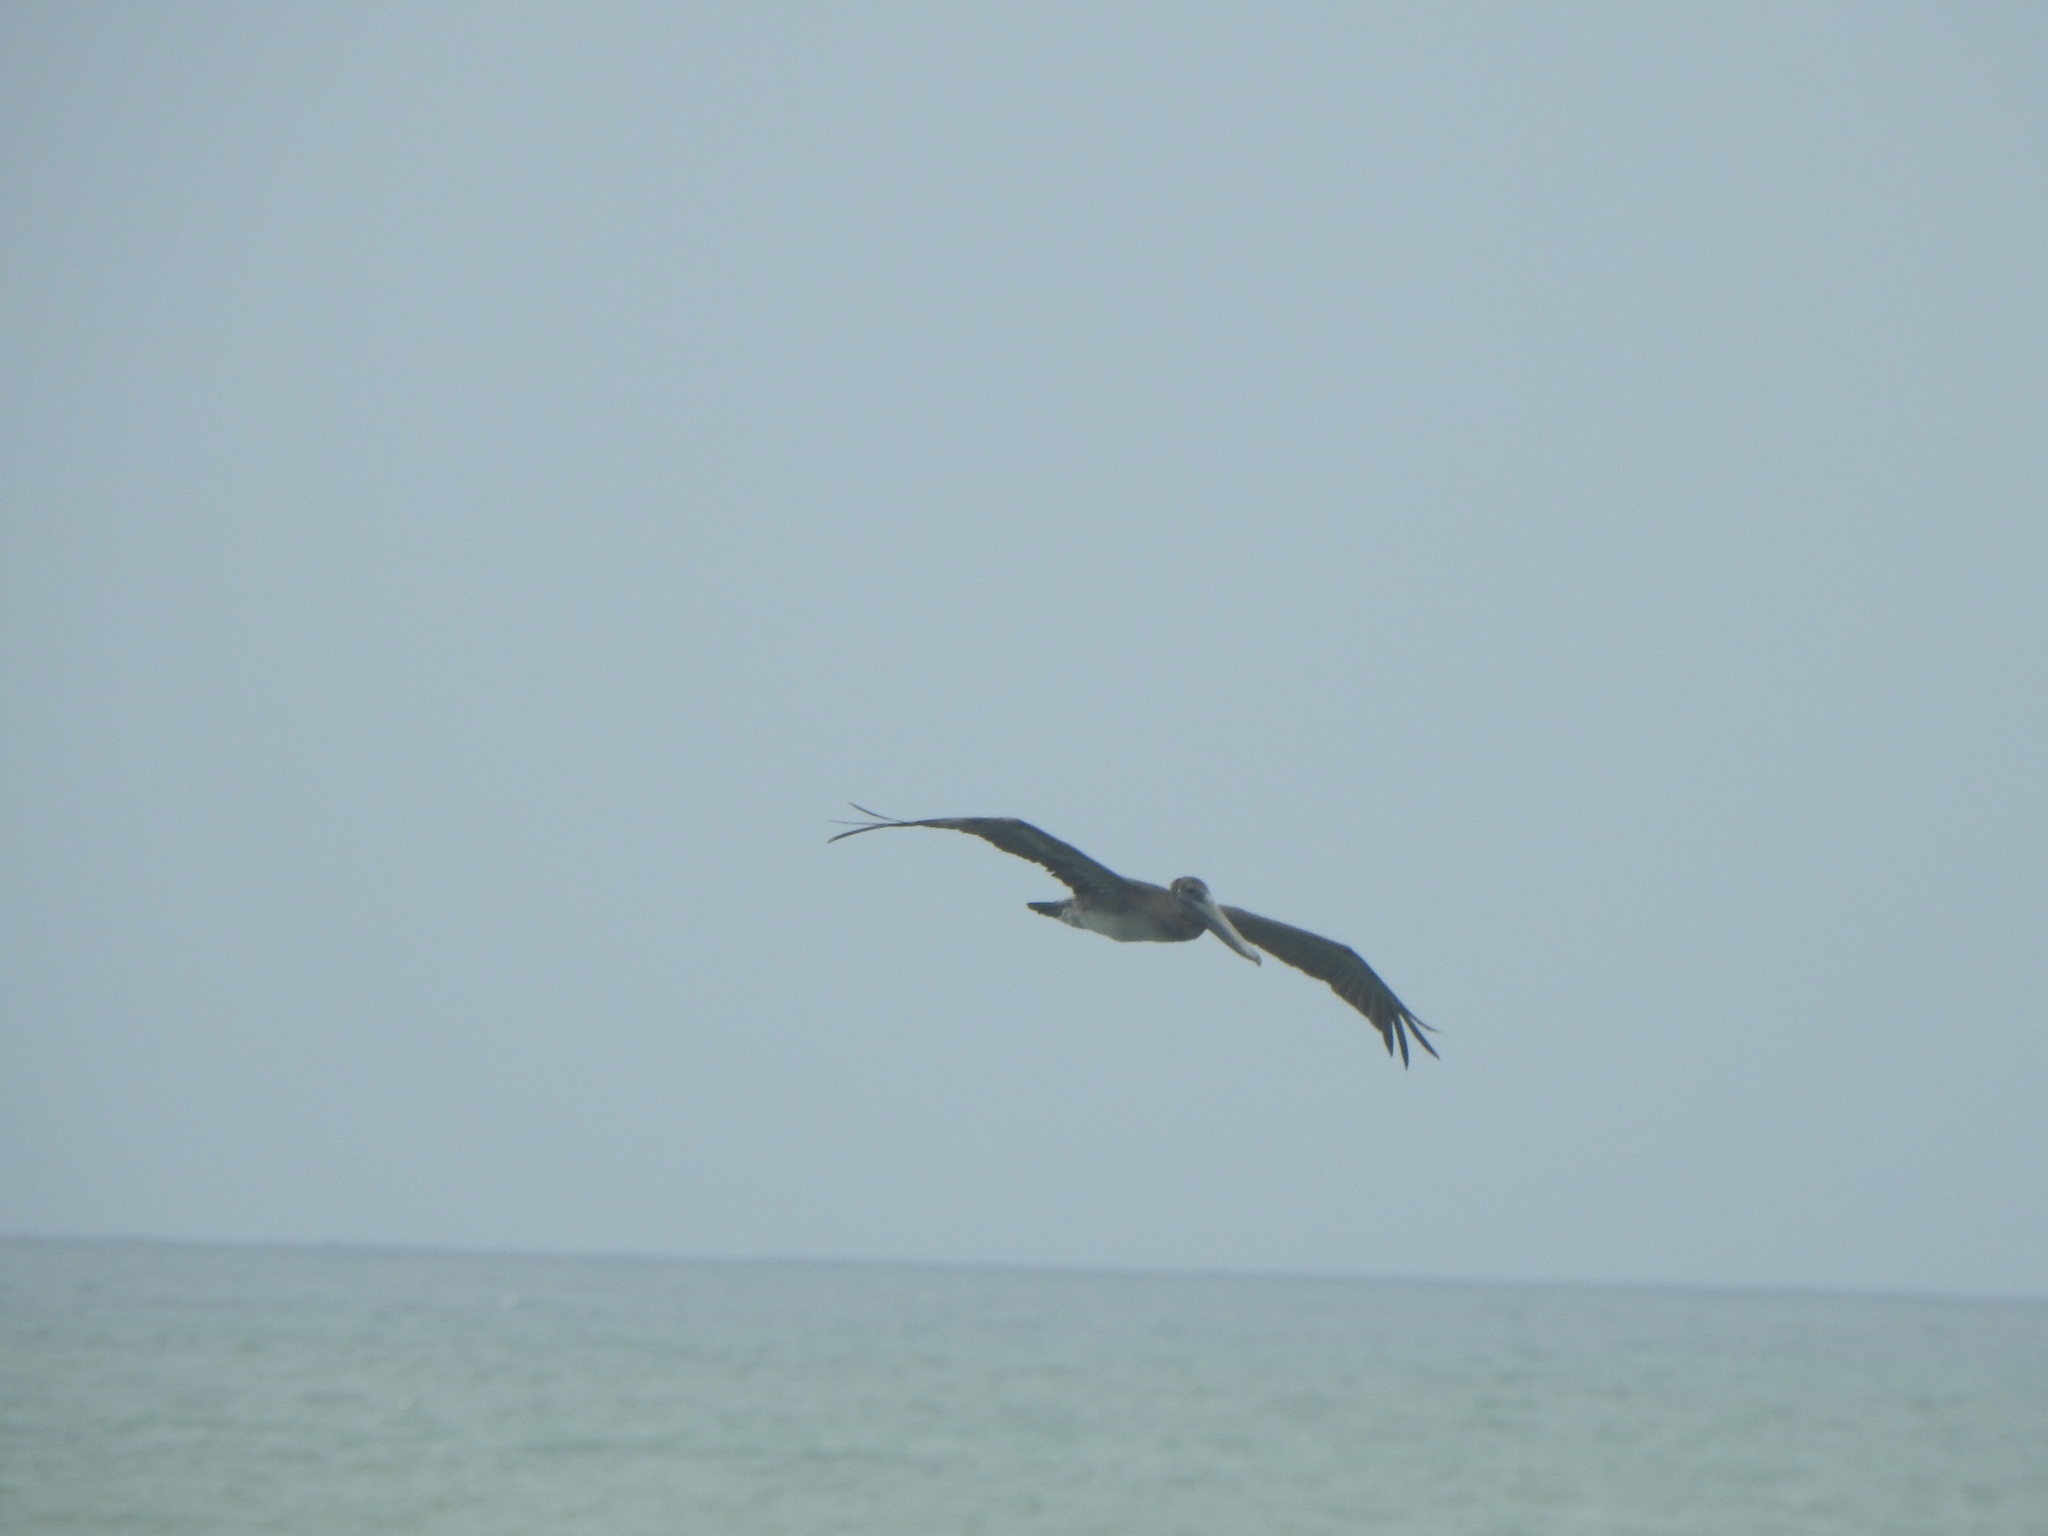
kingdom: Animalia
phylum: Chordata
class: Aves
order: Pelecaniformes
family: Pelecanidae
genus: Pelecanus
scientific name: Pelecanus occidentalis
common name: Brown pelican
